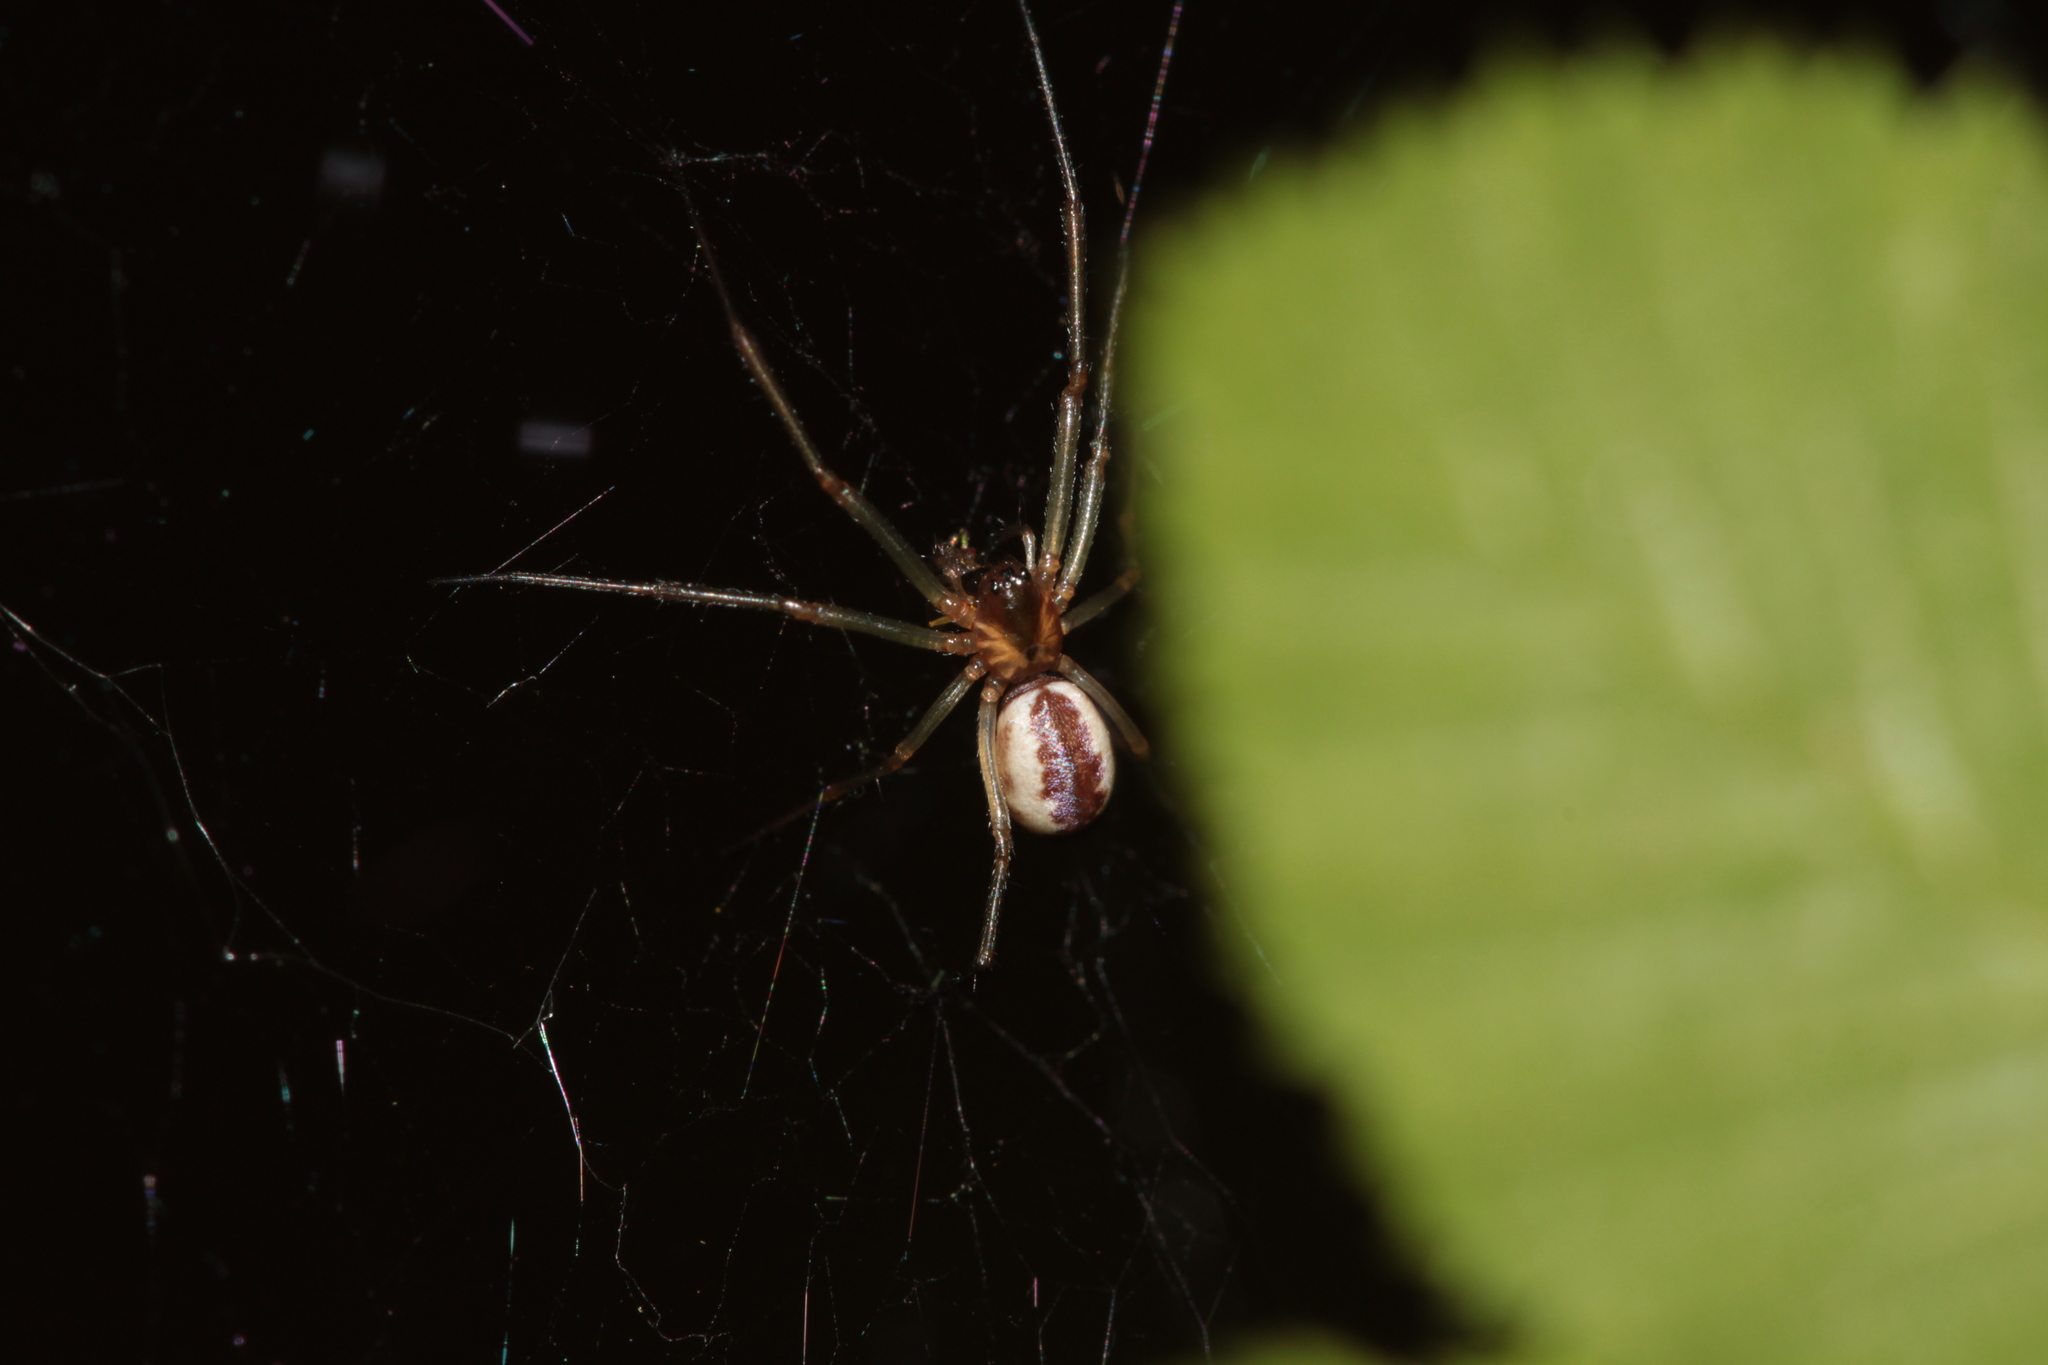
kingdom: Animalia
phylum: Arthropoda
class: Arachnida
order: Araneae
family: Linyphiidae
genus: Neriene
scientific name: Neriene peltata
